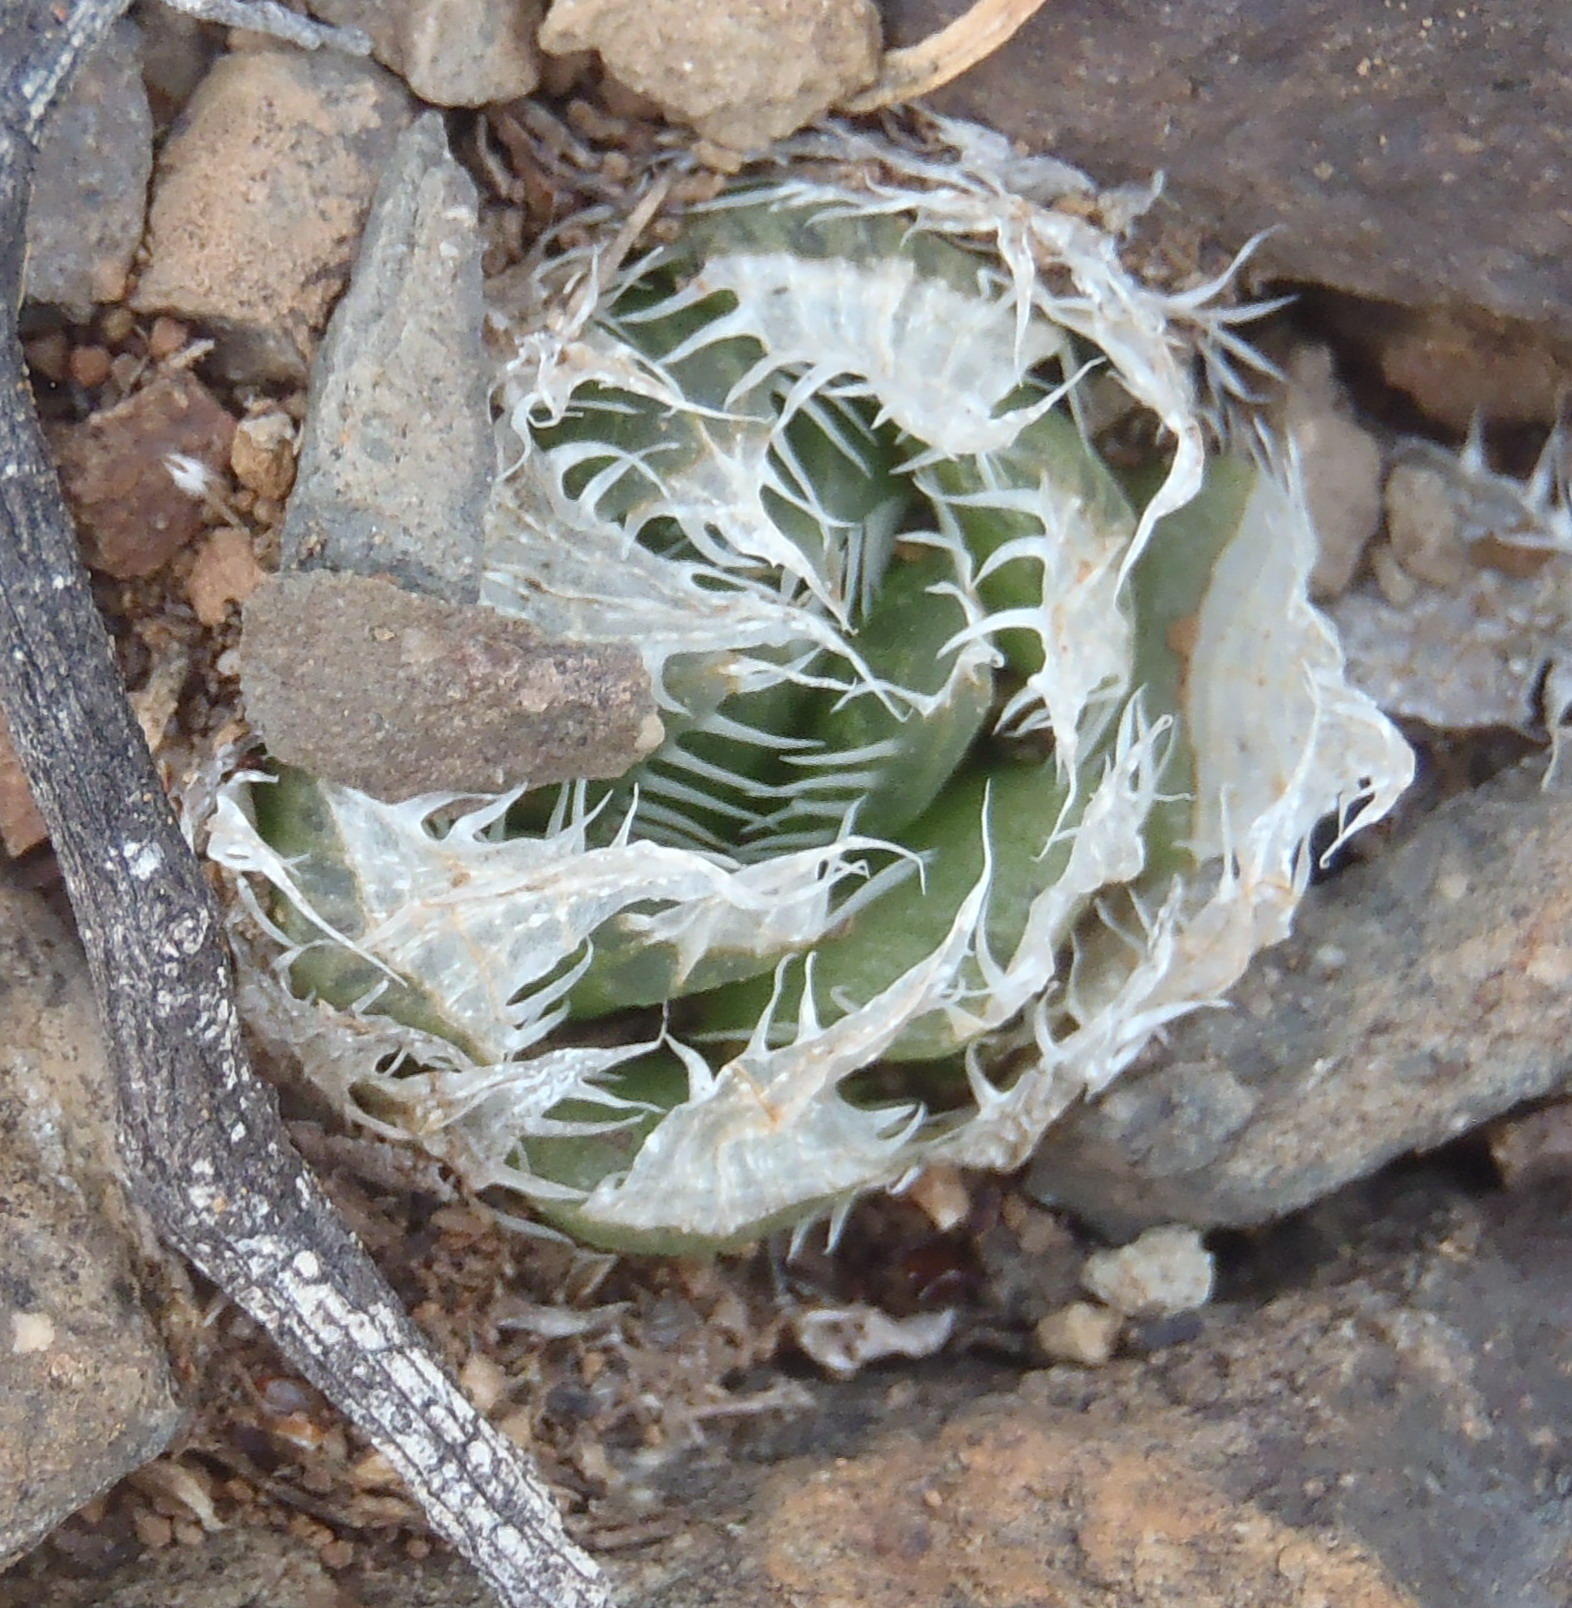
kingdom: Plantae
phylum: Tracheophyta
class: Liliopsida
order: Asparagales
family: Asphodelaceae
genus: Haworthia
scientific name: Haworthia decipiens
